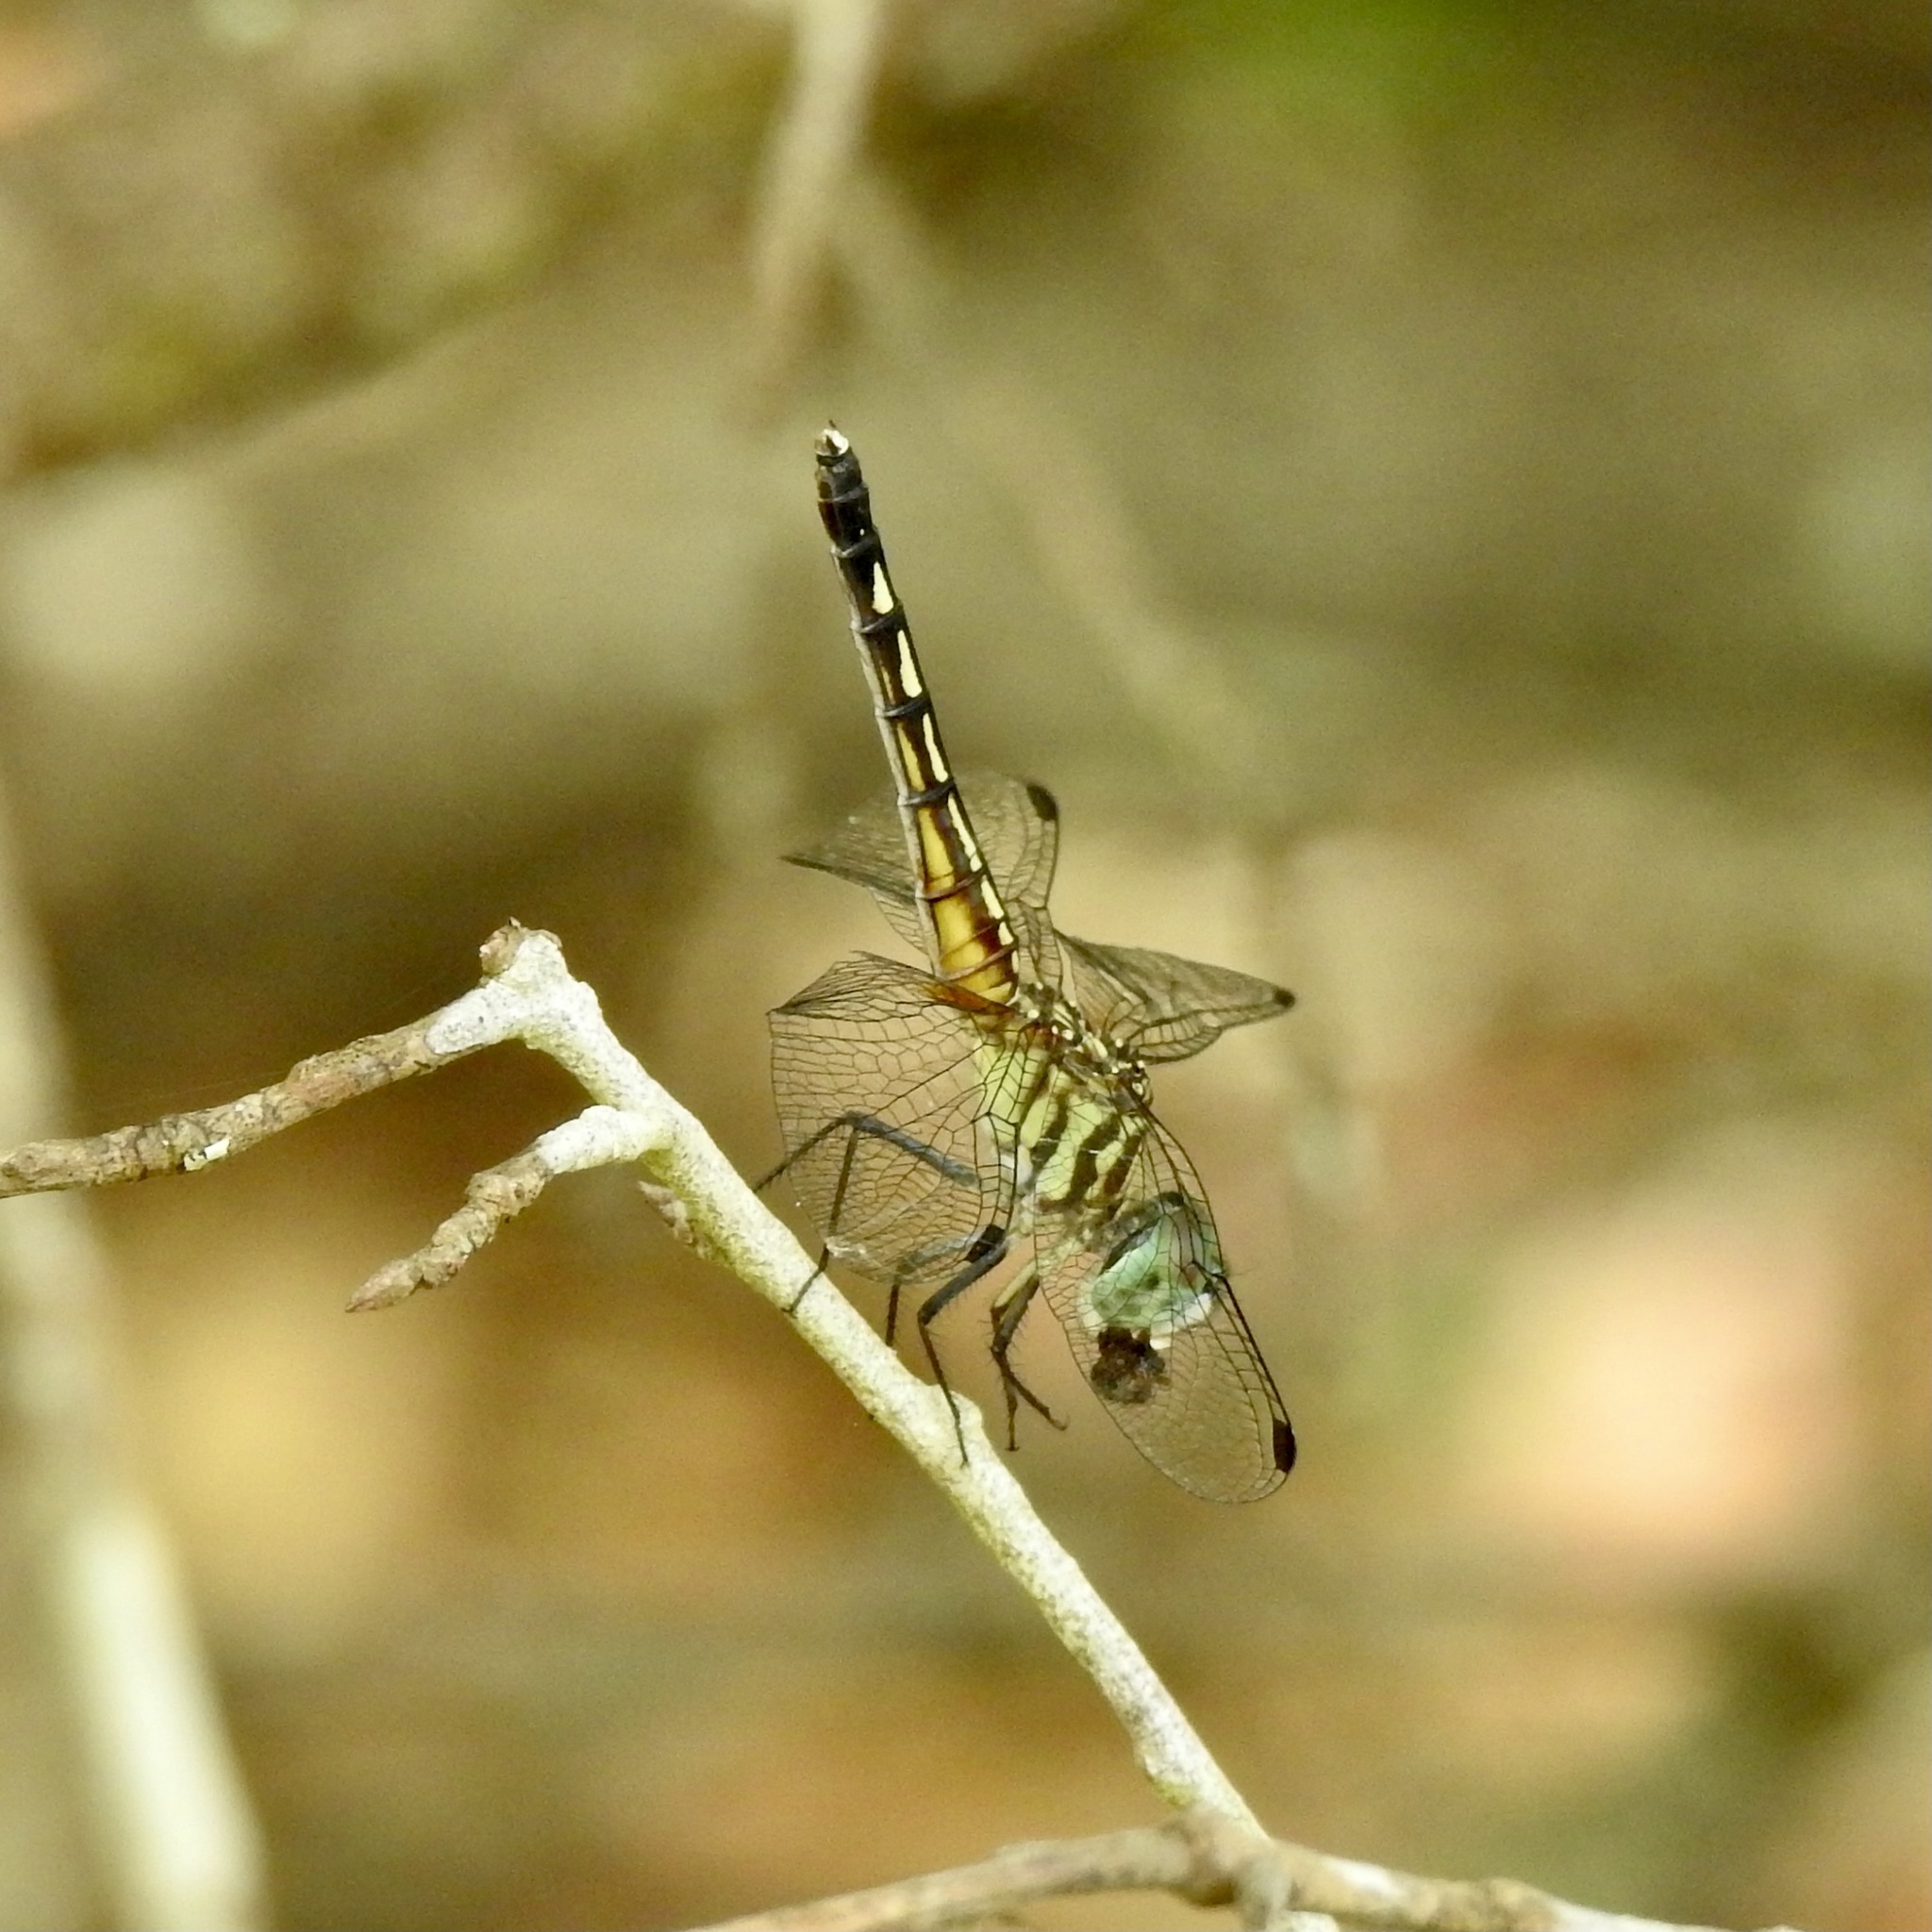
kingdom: Animalia
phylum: Arthropoda
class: Insecta
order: Odonata
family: Libellulidae
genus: Pachydiplax
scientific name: Pachydiplax longipennis
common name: Blue dasher
